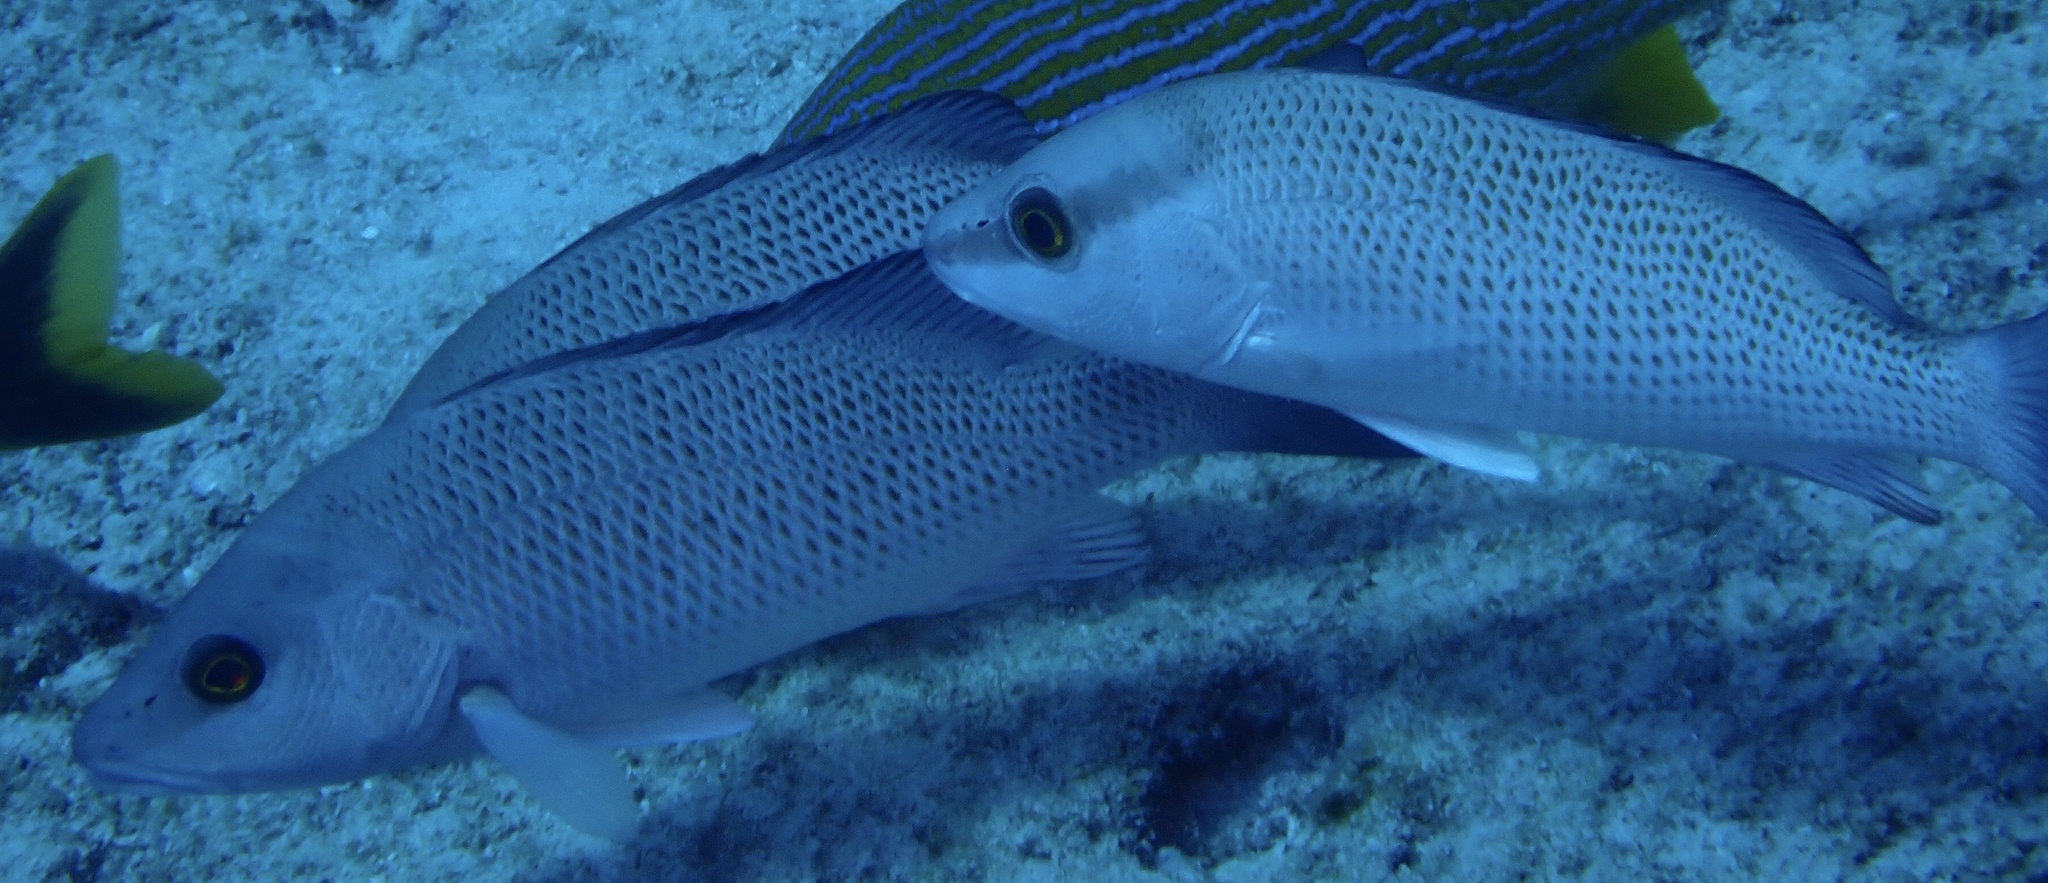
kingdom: Animalia
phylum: Chordata
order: Perciformes
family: Lutjanidae
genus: Lutjanus
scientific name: Lutjanus griseus
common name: Gray snapper
